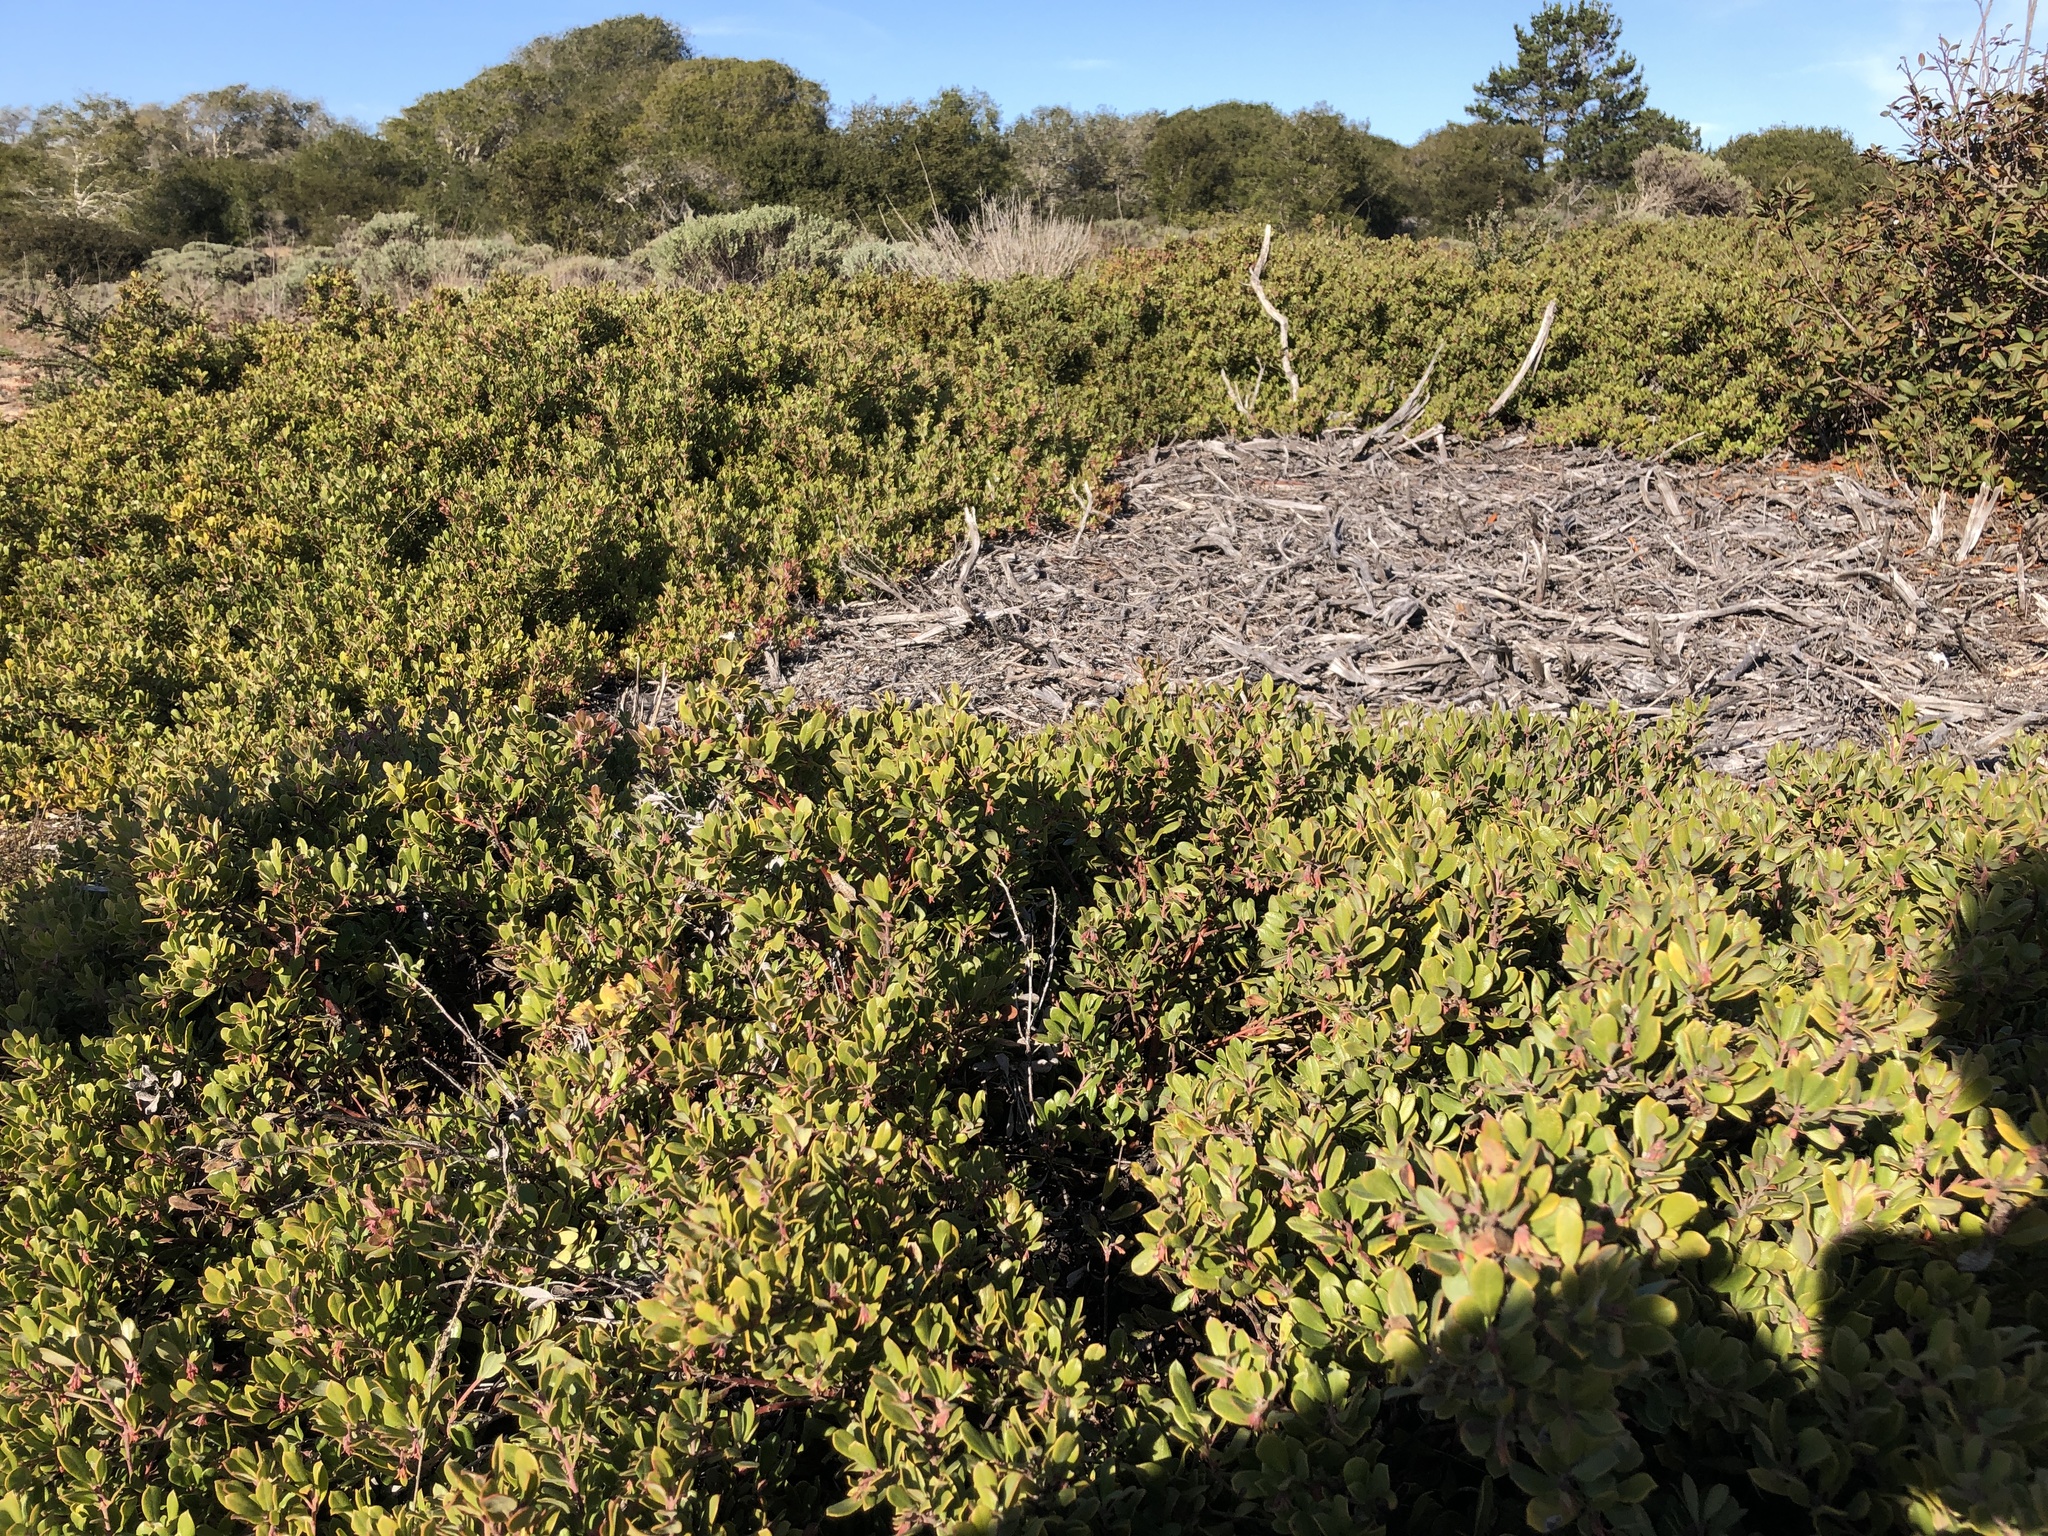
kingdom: Plantae
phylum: Tracheophyta
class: Magnoliopsida
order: Ericales
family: Ericaceae
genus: Arctostaphylos
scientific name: Arctostaphylos pumila
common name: Sandmat manzanita
